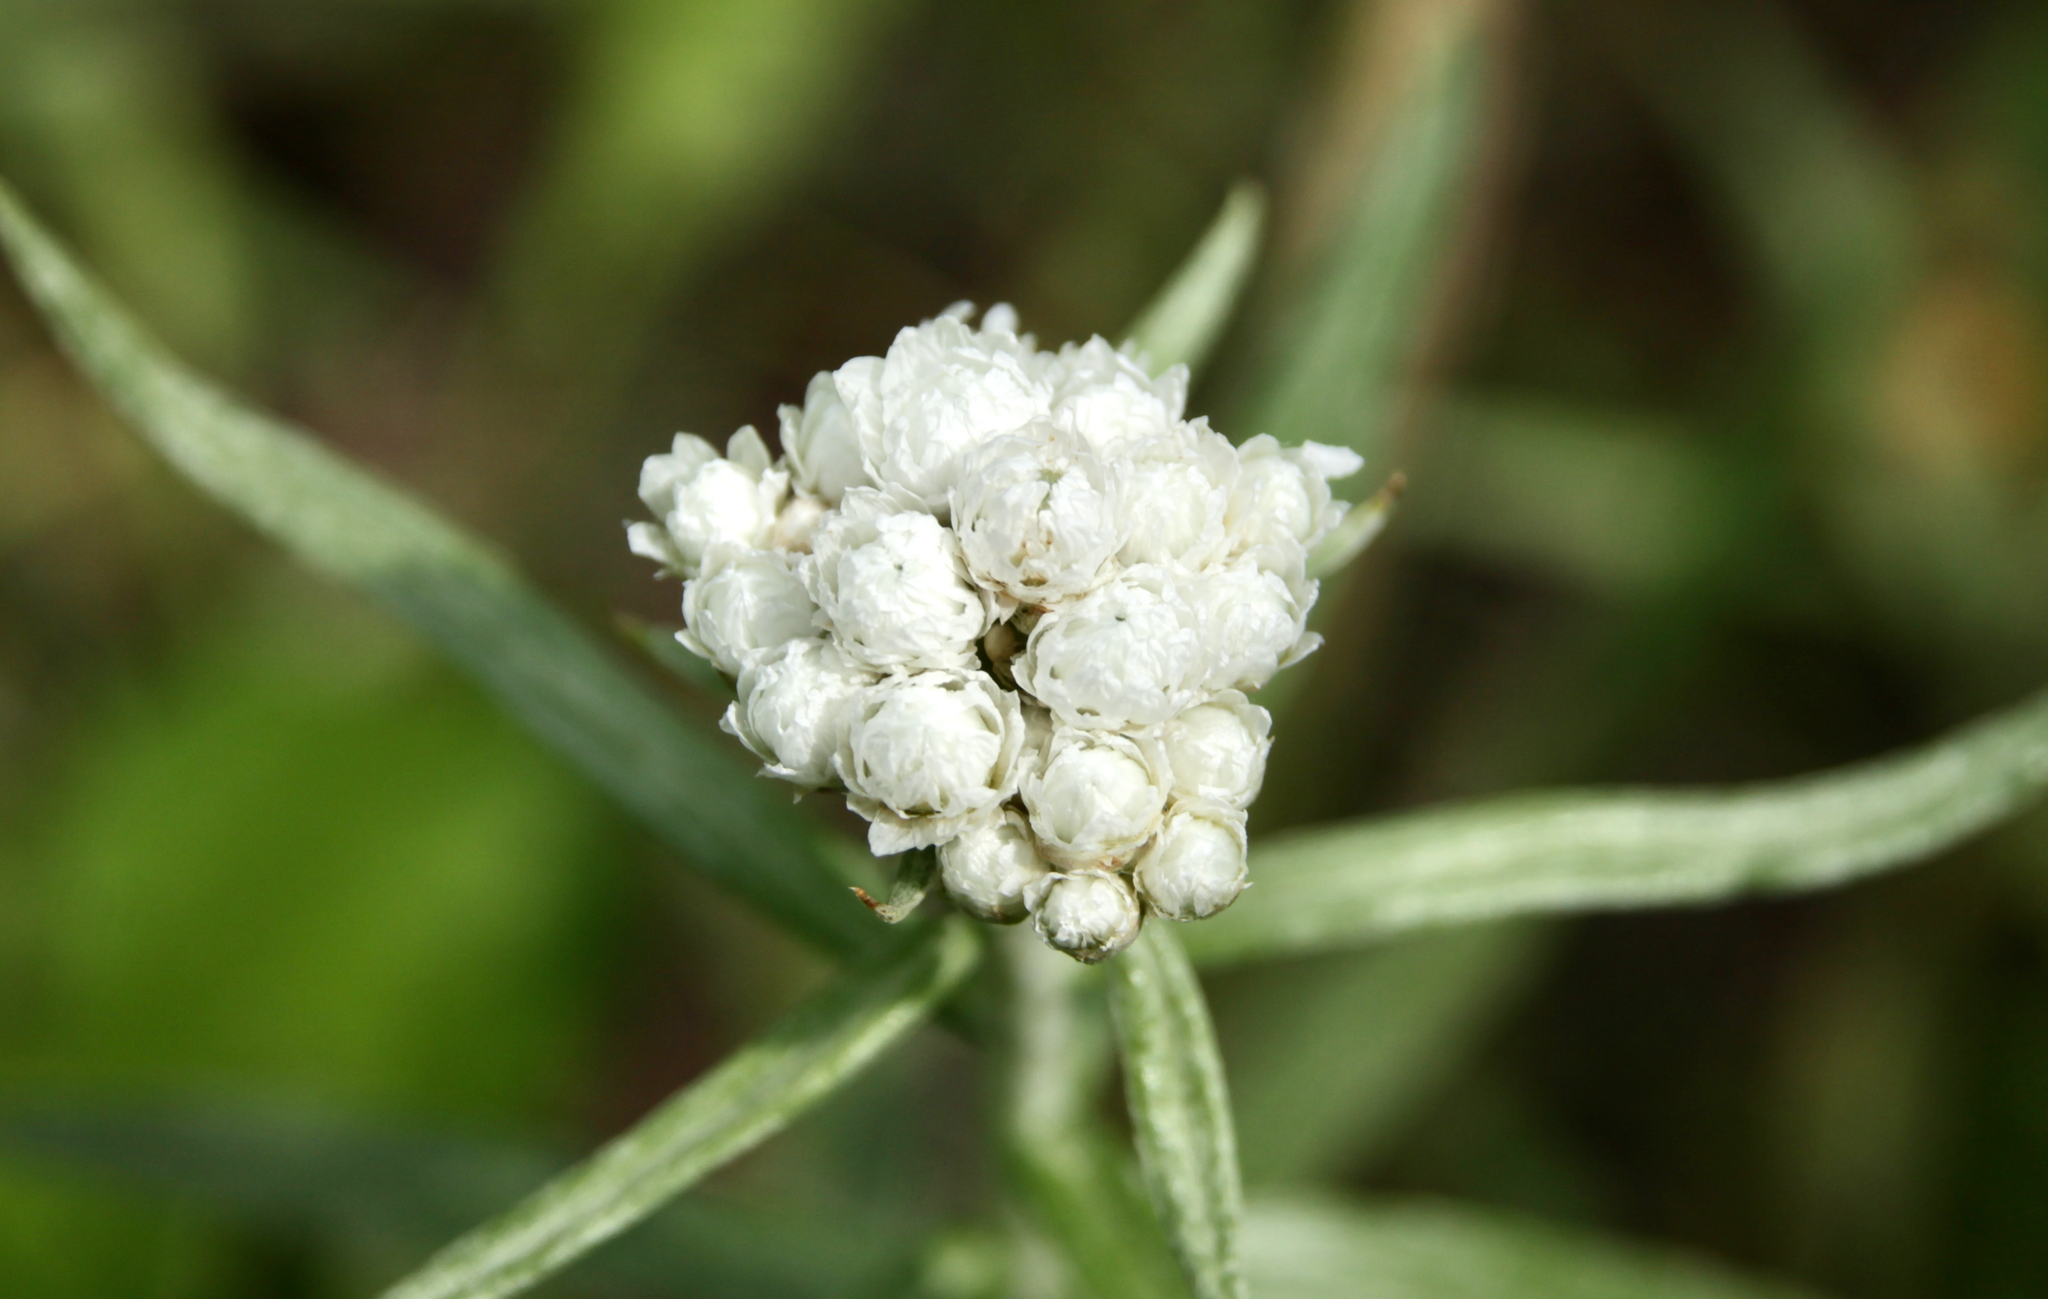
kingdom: Plantae
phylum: Tracheophyta
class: Magnoliopsida
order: Asterales
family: Asteraceae
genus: Anaphalis
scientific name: Anaphalis margaritacea
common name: Pearly everlasting
